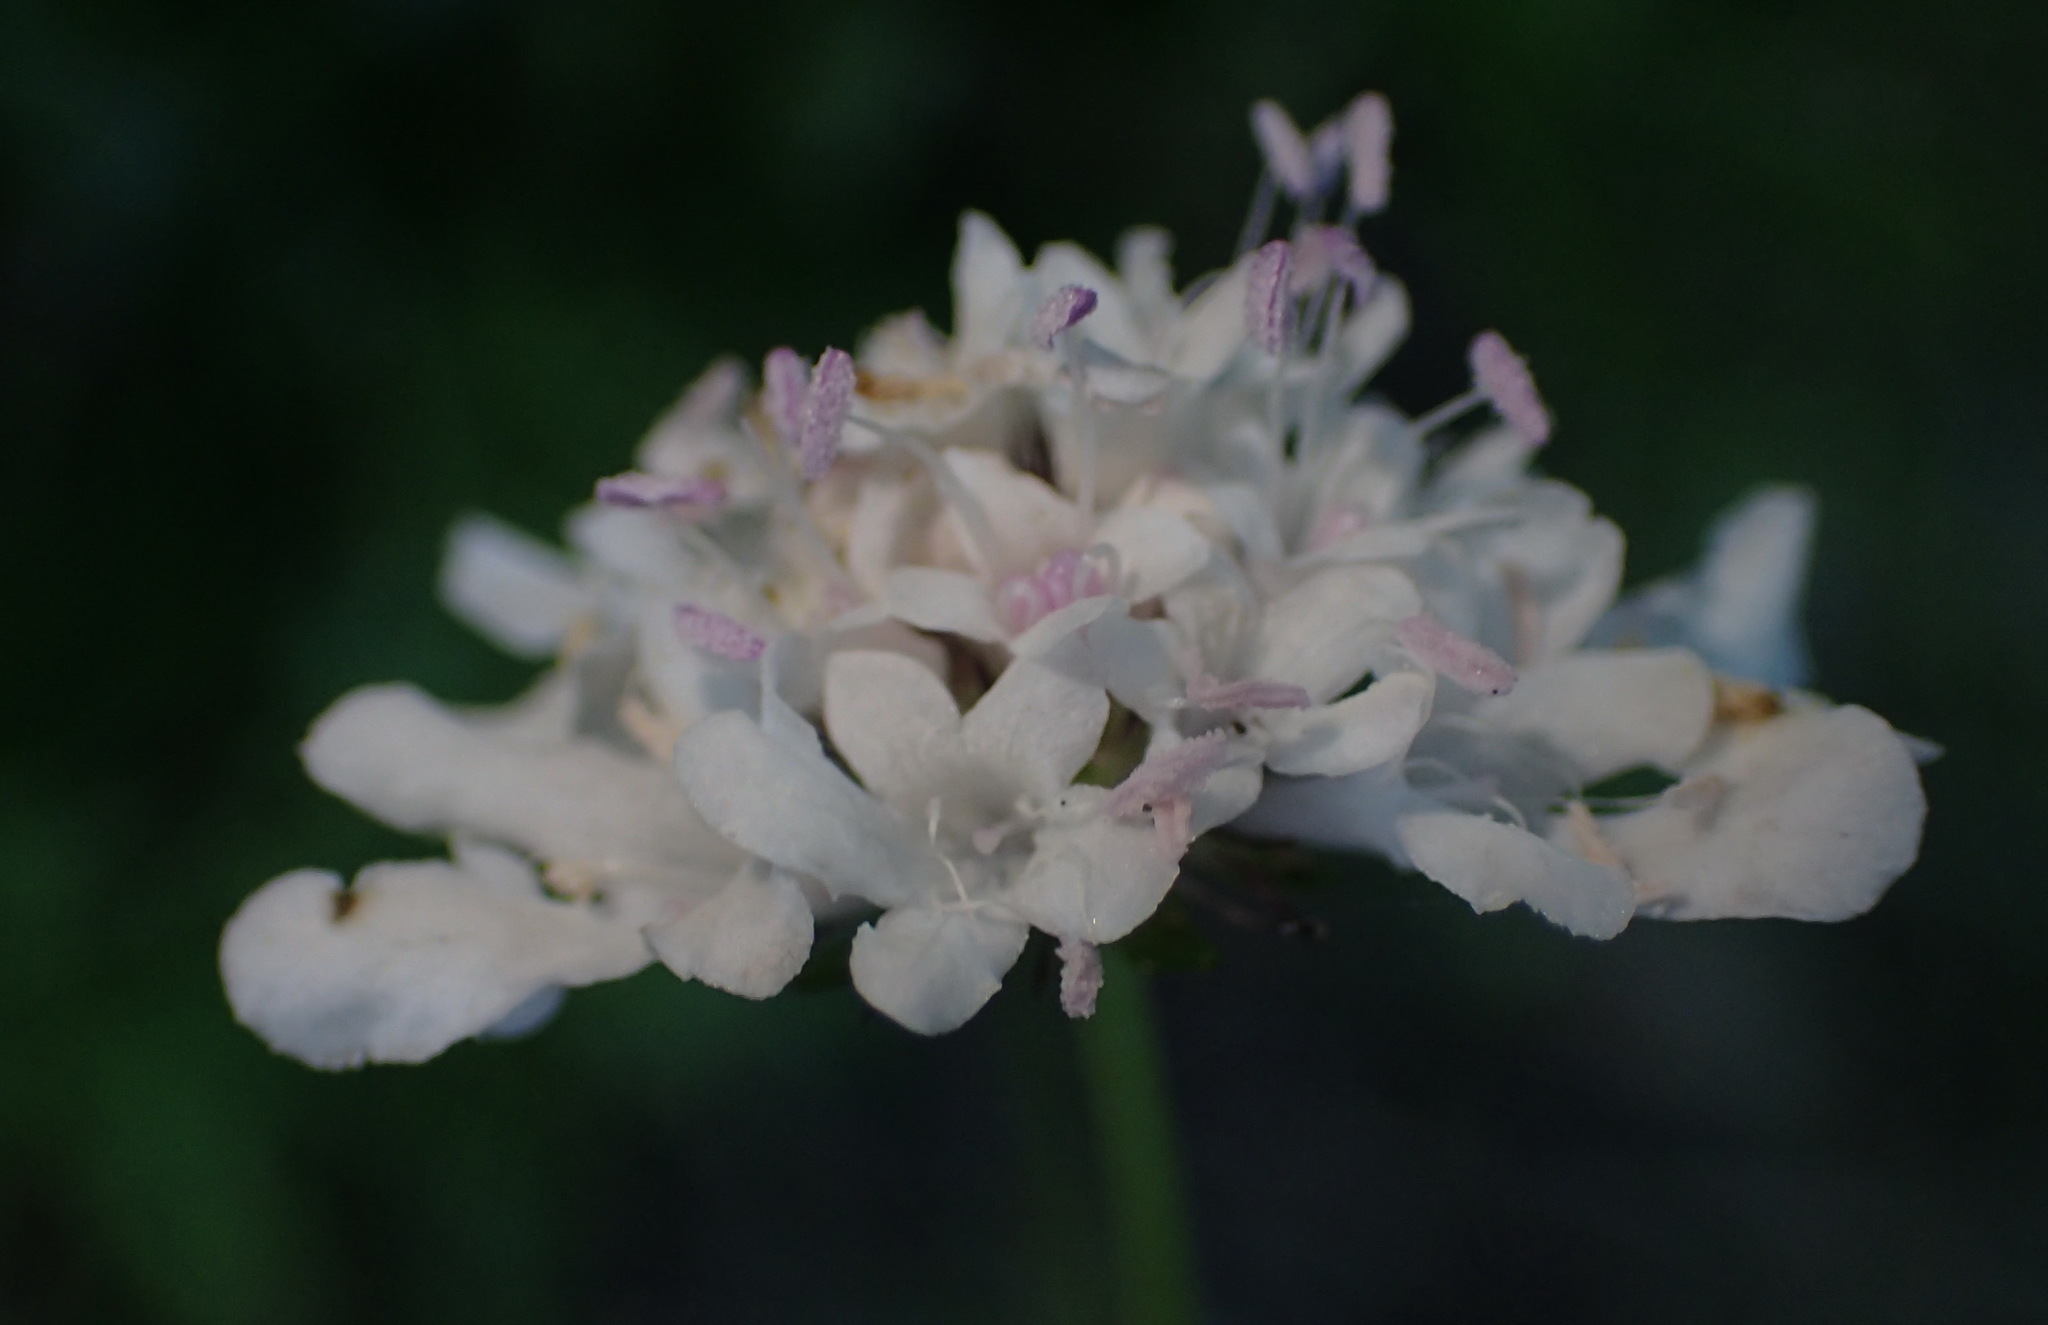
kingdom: Plantae
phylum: Tracheophyta
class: Magnoliopsida
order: Dipsacales
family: Caprifoliaceae
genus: Scabiosa
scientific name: Scabiosa columbaria
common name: Small scabious
